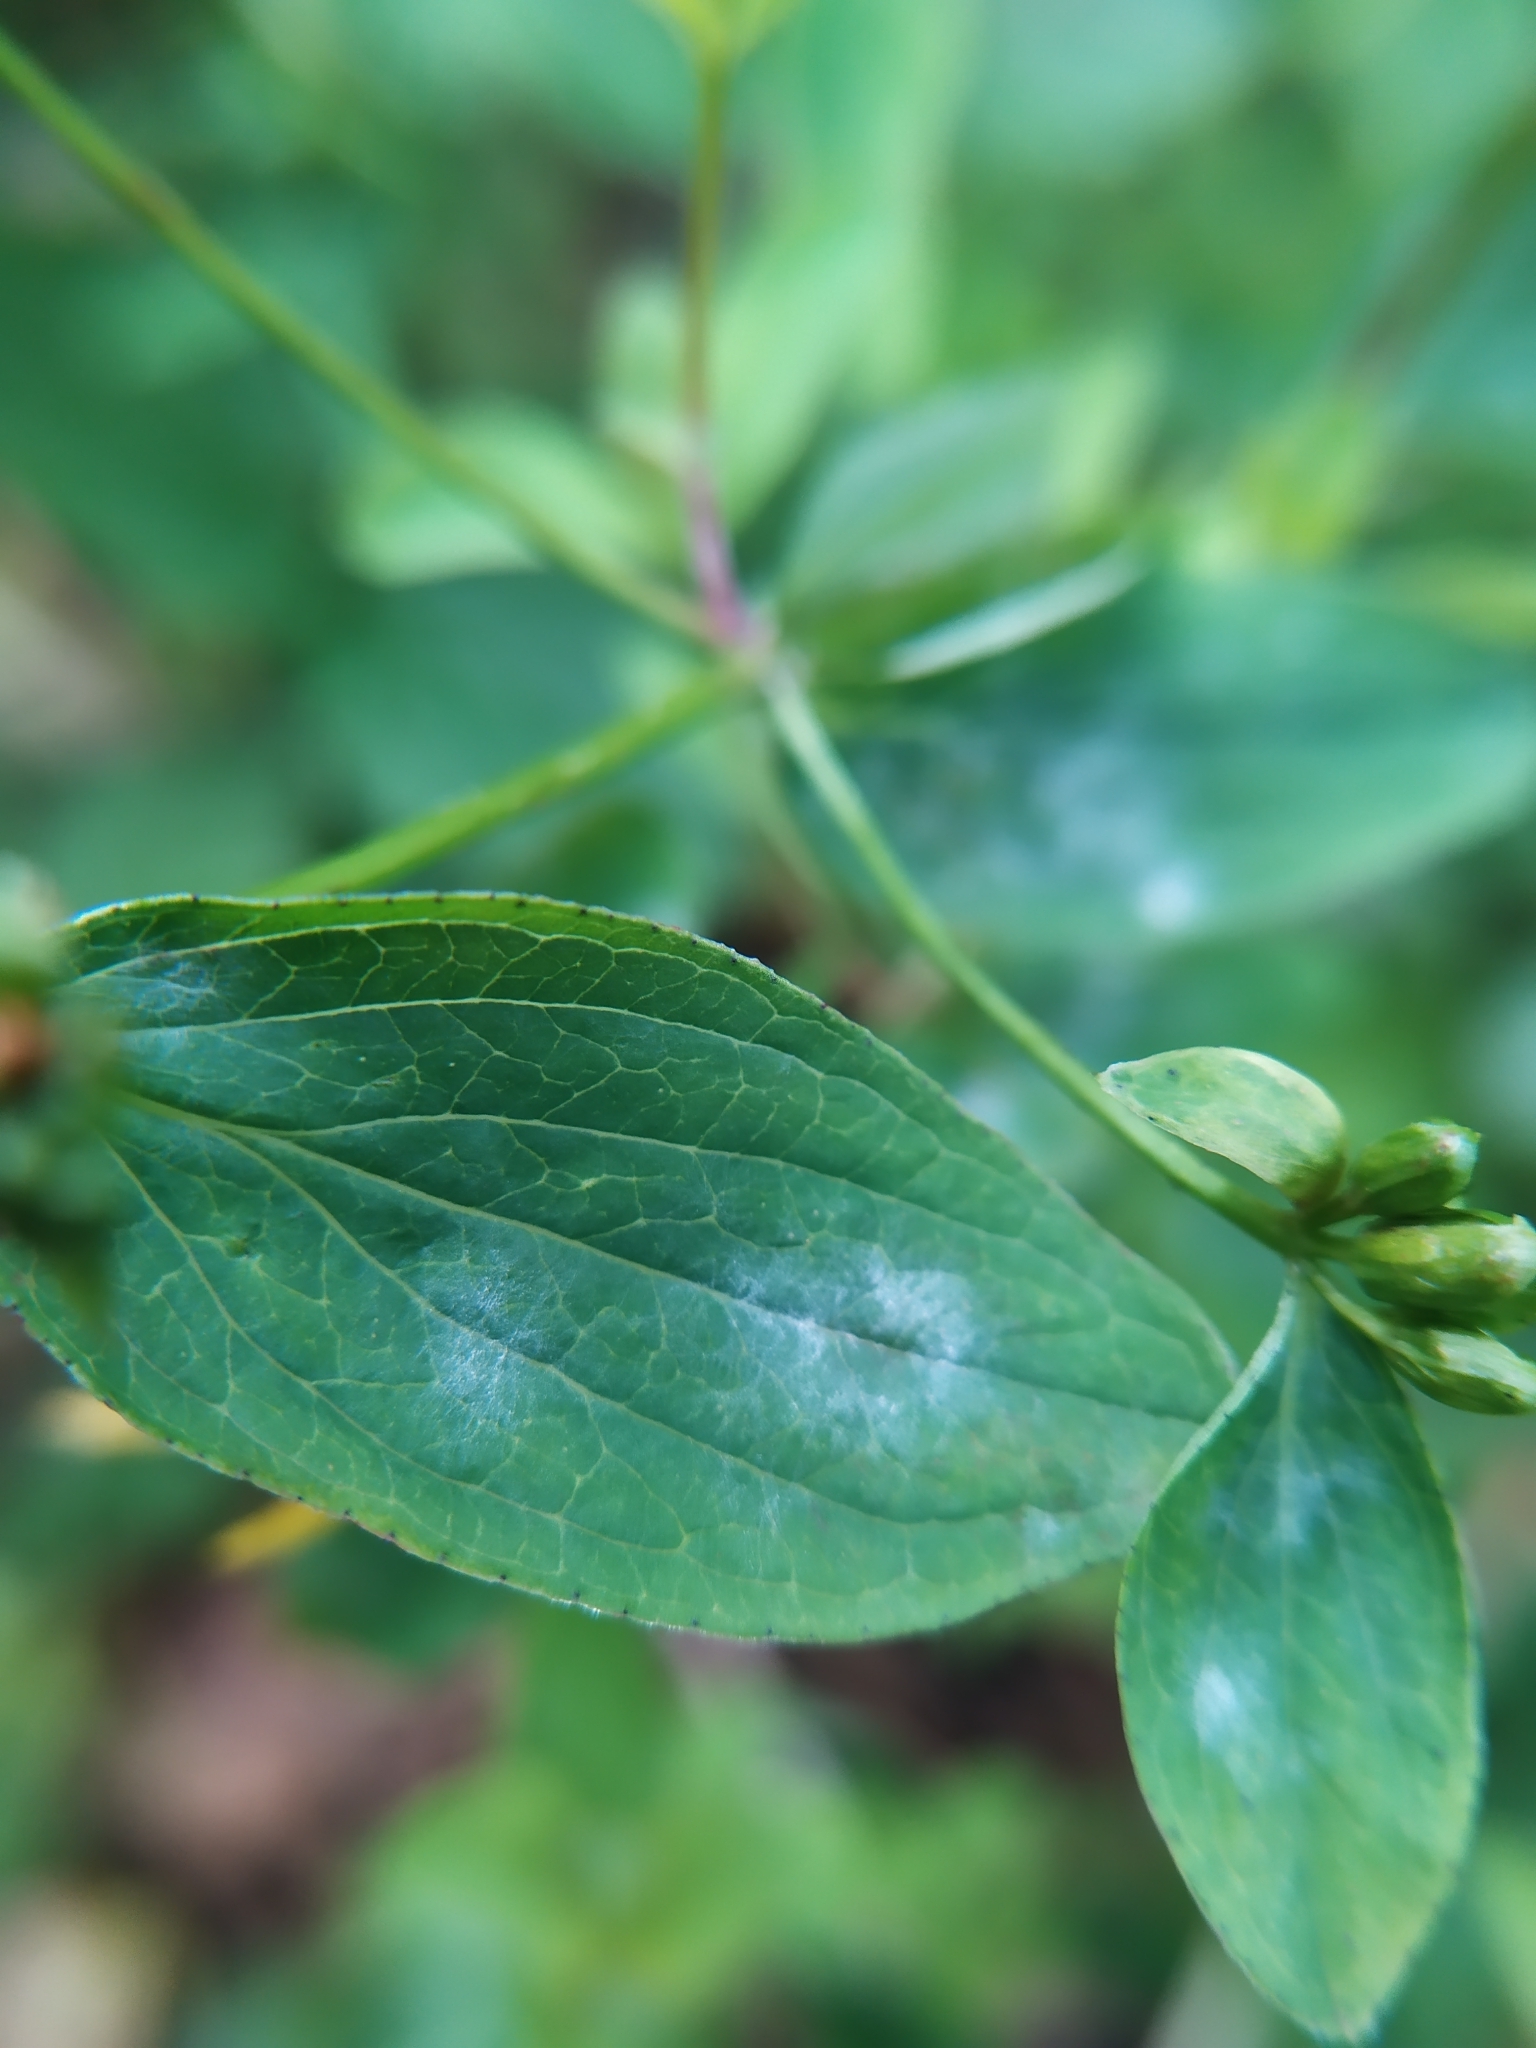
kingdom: Fungi
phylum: Ascomycota
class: Leotiomycetes
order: Helotiales
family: Erysiphaceae
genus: Erysiphe
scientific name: Erysiphe hyperici
